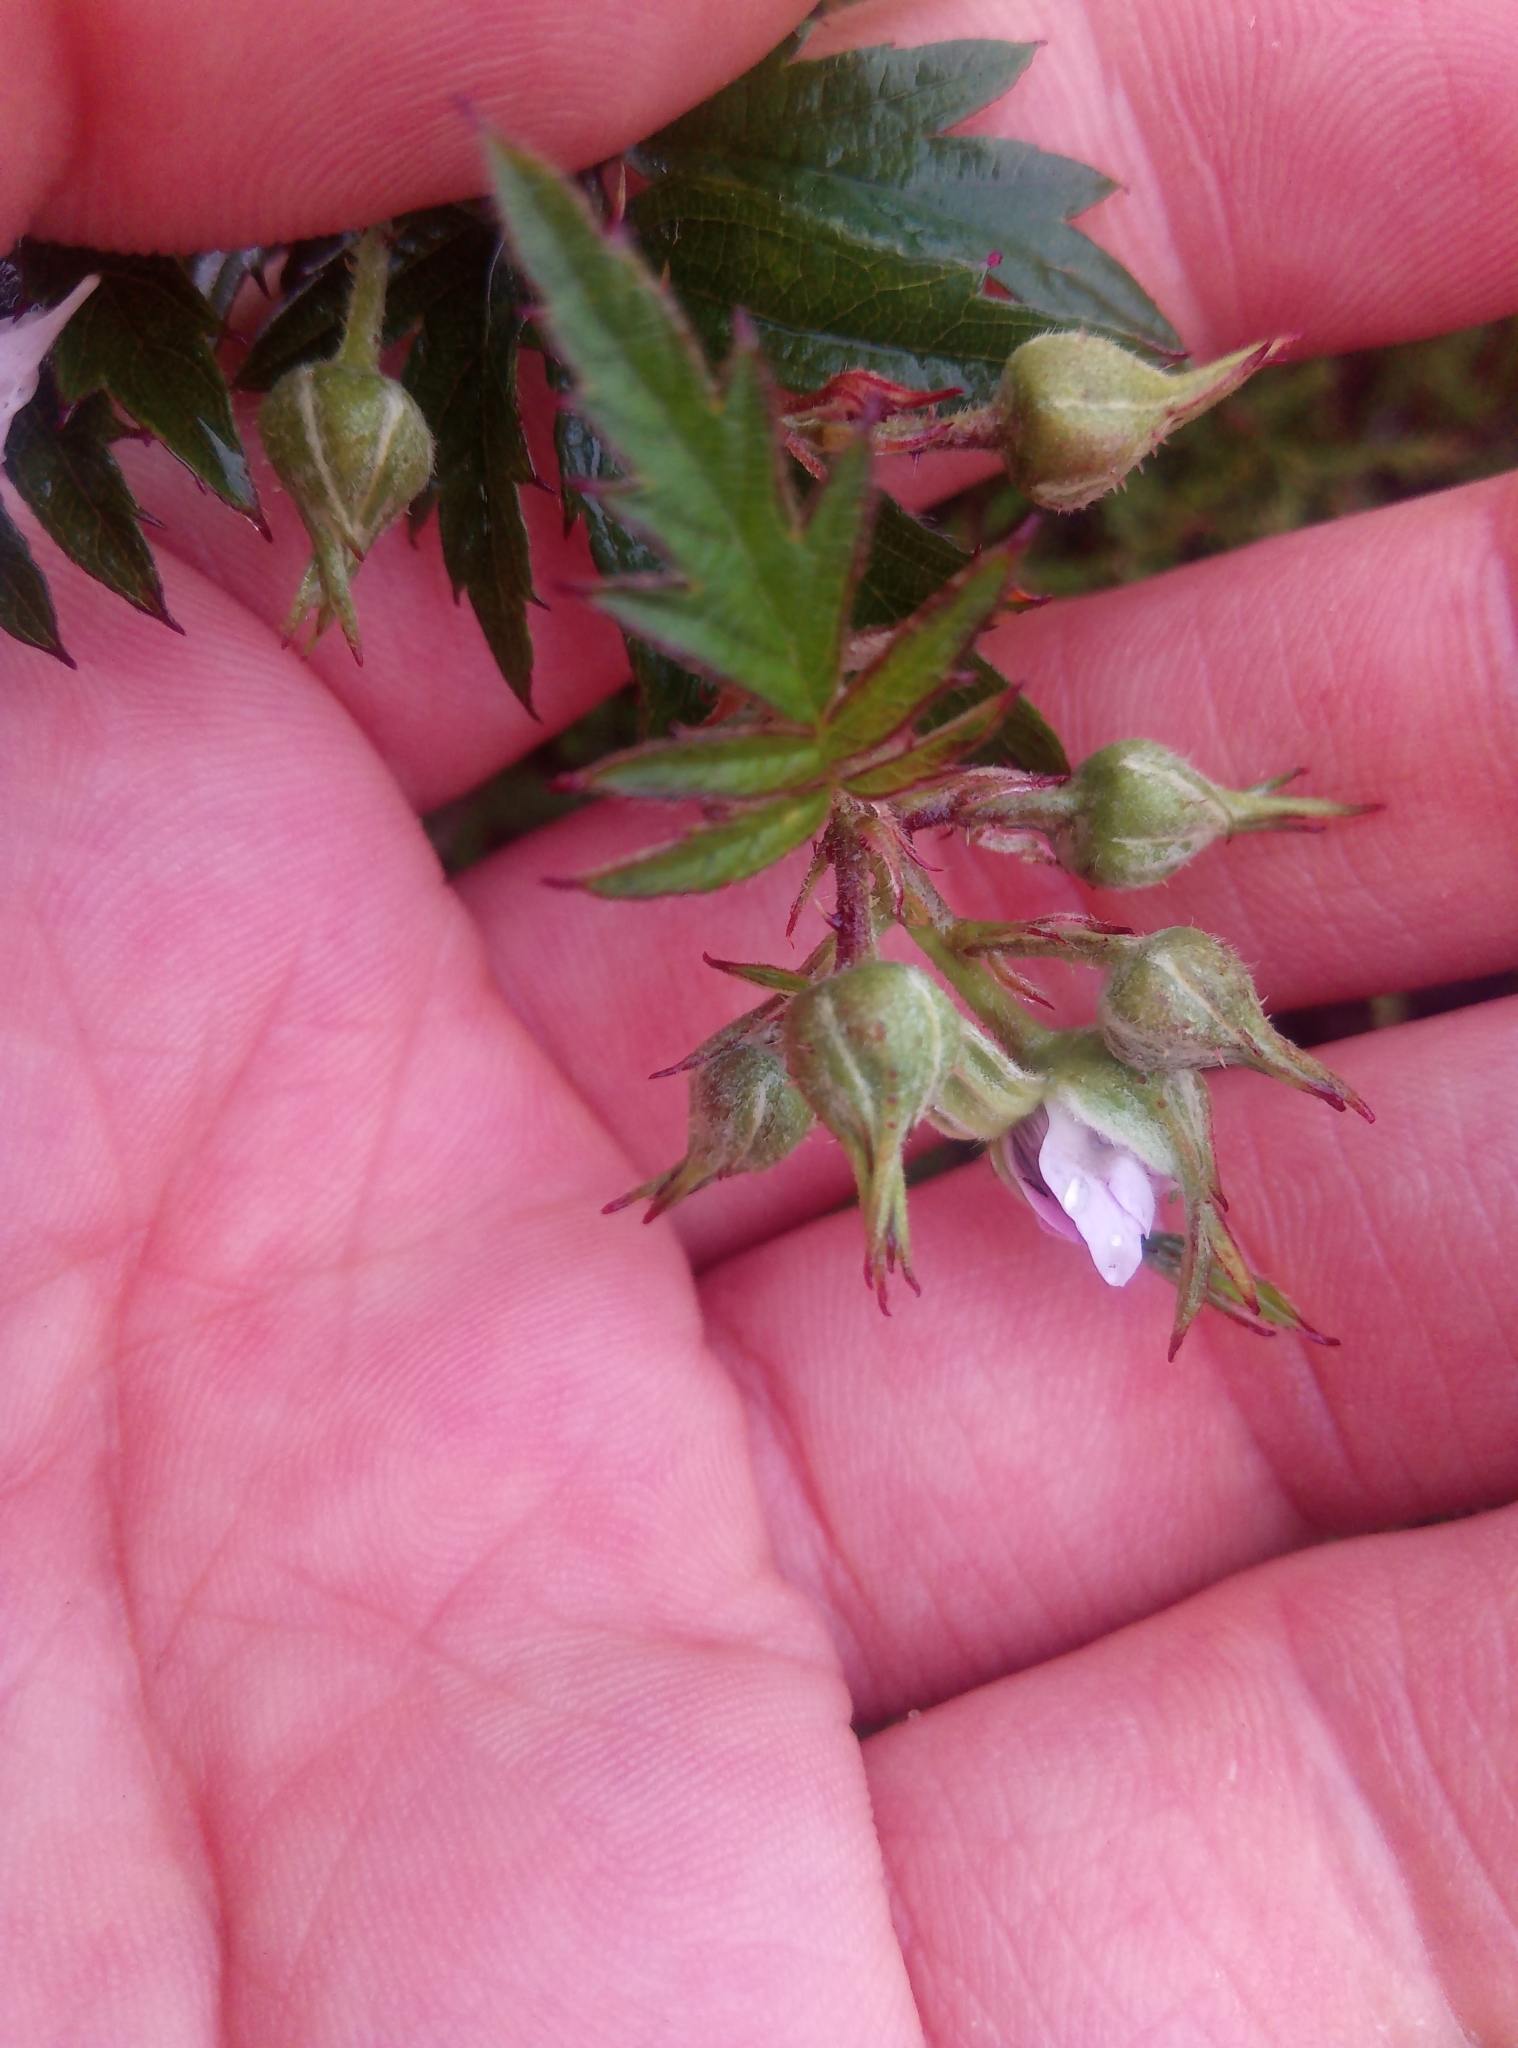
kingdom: Plantae
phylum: Tracheophyta
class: Magnoliopsida
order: Rosales
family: Rosaceae
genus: Rubus
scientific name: Rubus laciniatus
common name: Evergreen blackberry
